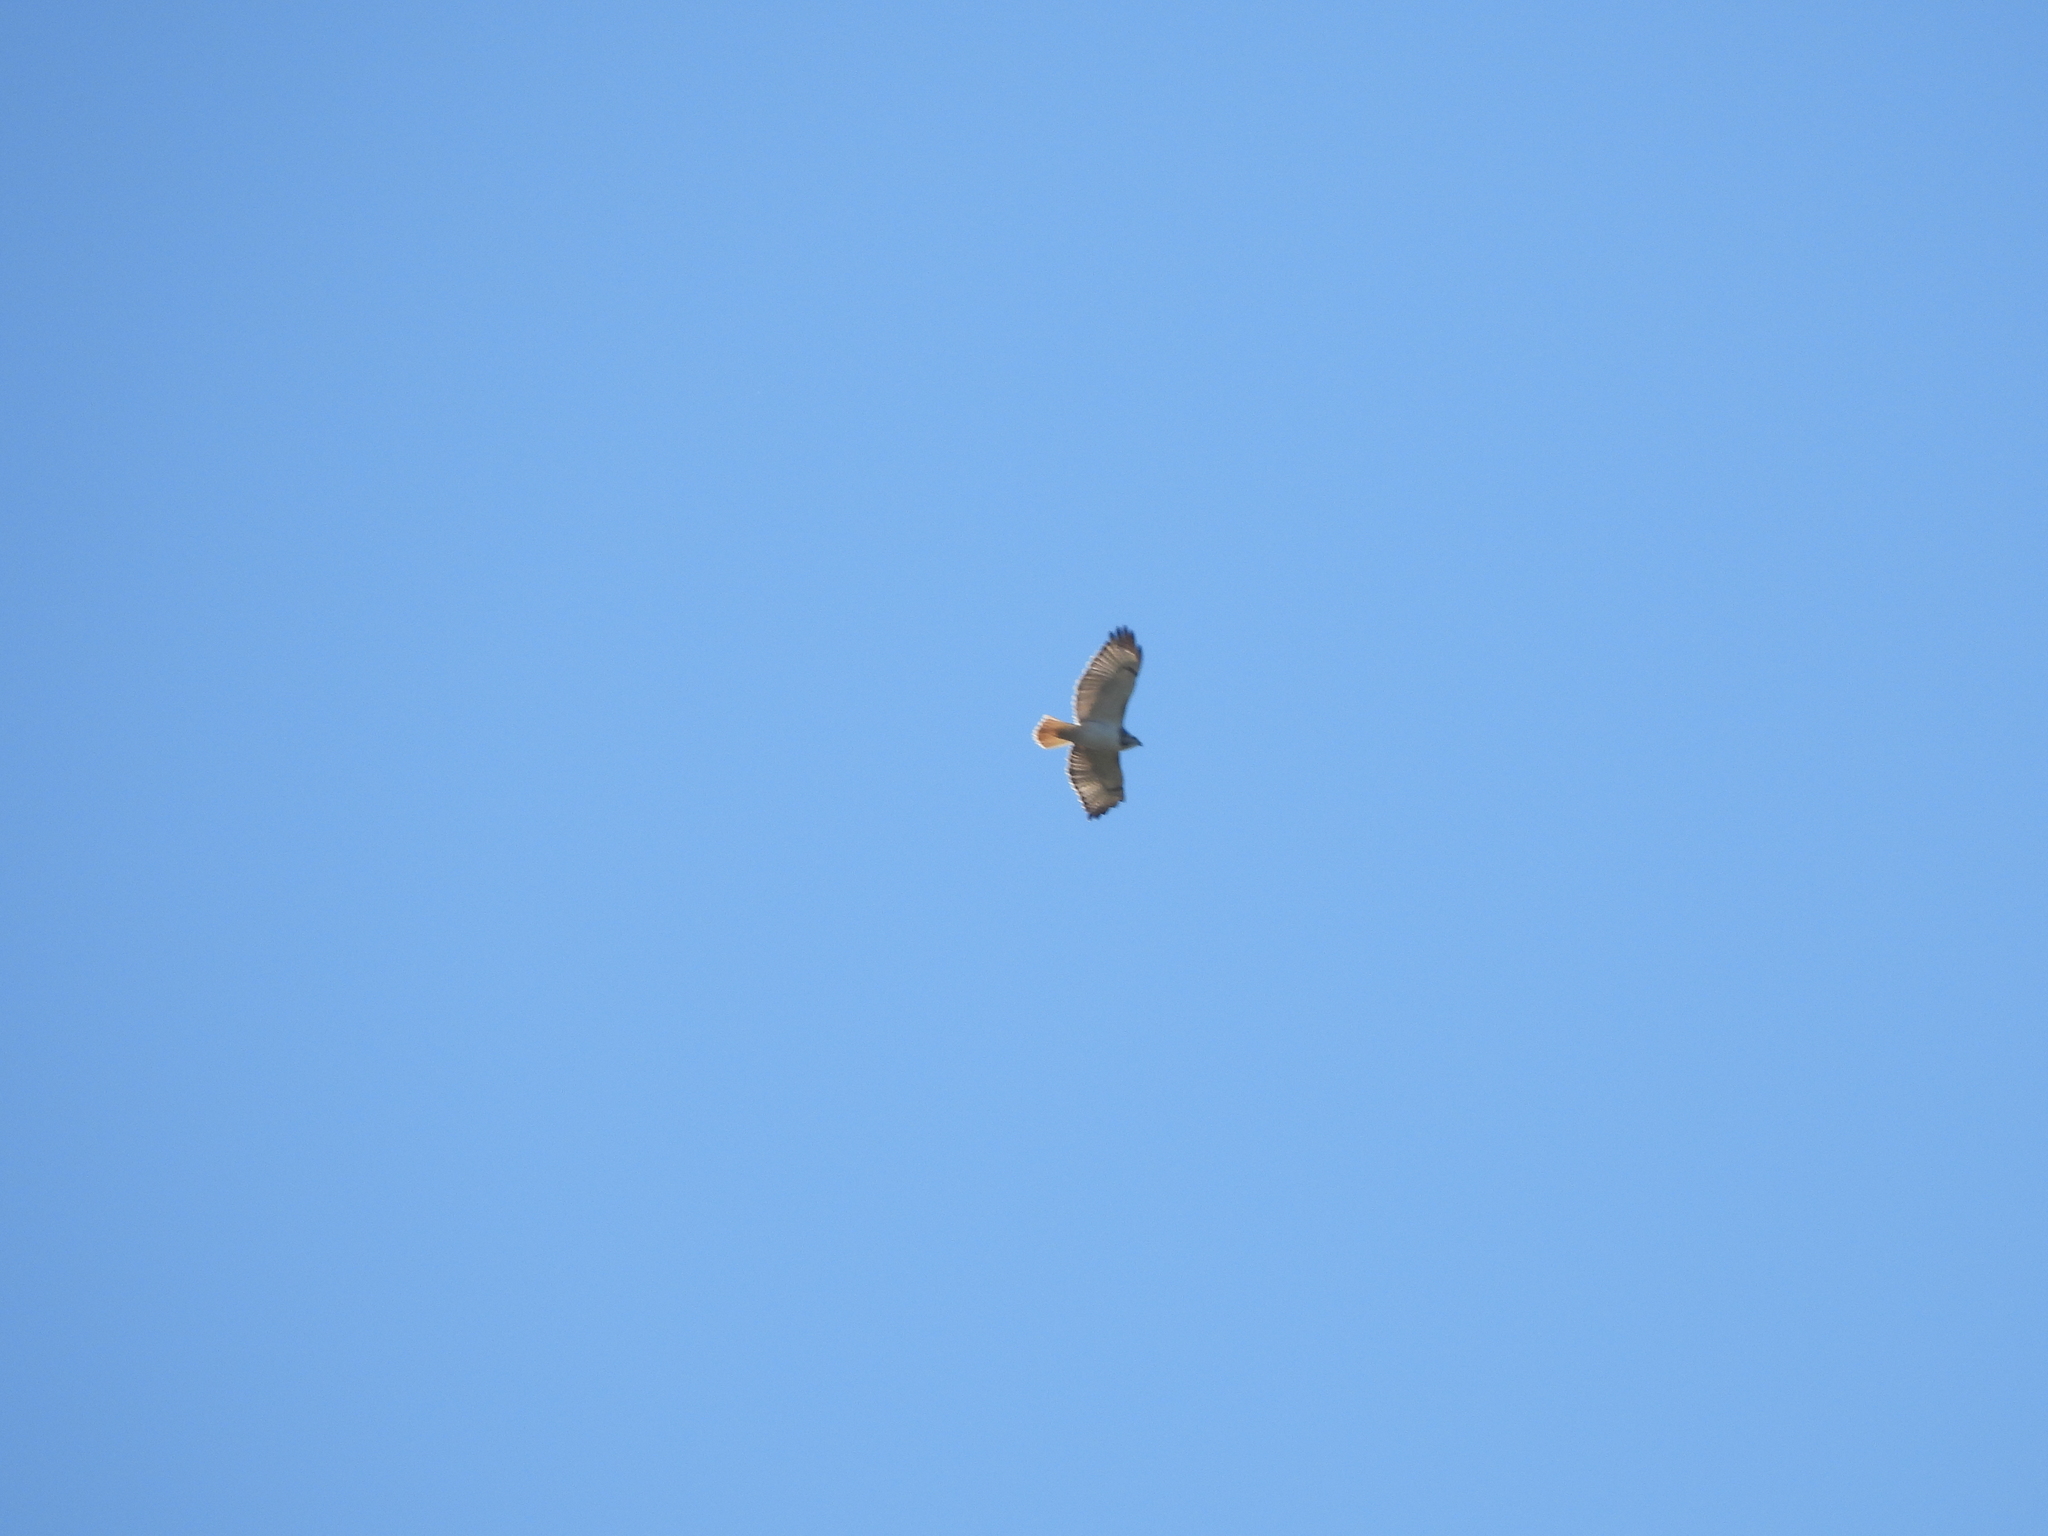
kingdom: Animalia
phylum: Chordata
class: Aves
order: Accipitriformes
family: Accipitridae
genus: Buteo
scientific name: Buteo jamaicensis
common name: Red-tailed hawk
